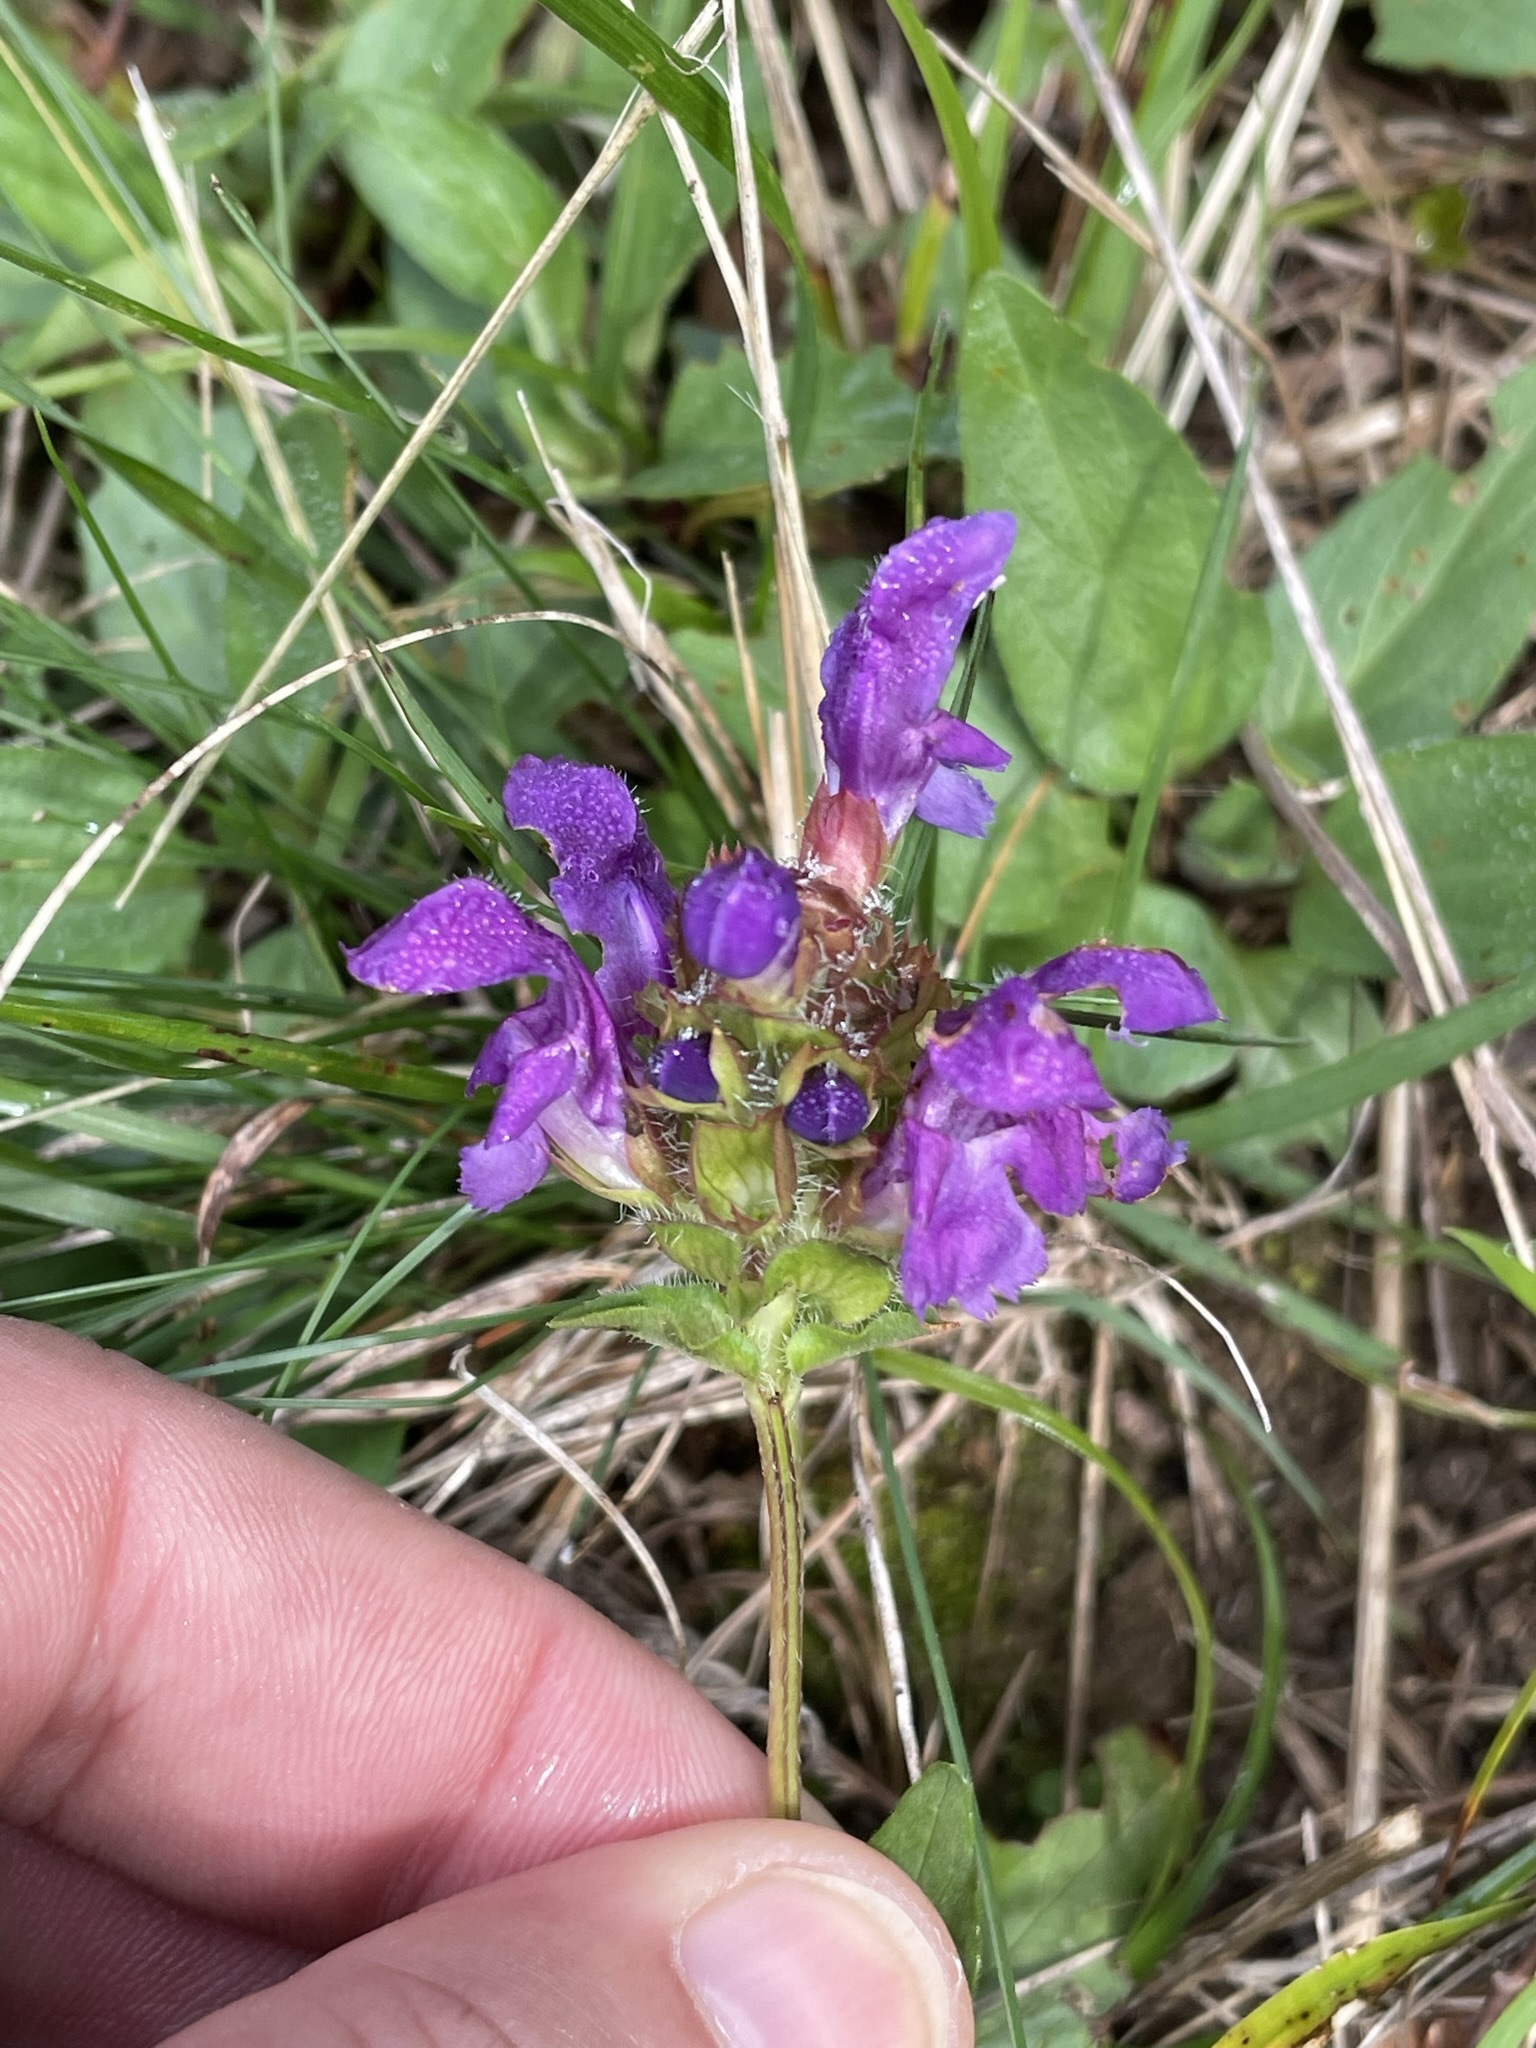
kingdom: Plantae
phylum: Tracheophyta
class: Magnoliopsida
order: Lamiales
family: Lamiaceae
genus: Prunella
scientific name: Prunella grandiflora
